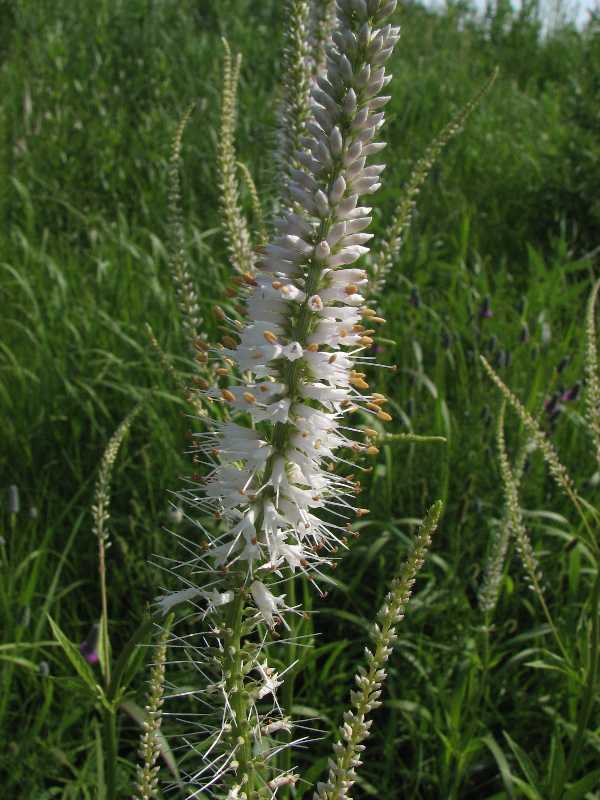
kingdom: Plantae
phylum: Tracheophyta
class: Magnoliopsida
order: Lamiales
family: Plantaginaceae
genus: Veronicastrum
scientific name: Veronicastrum virginicum
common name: Blackroot
